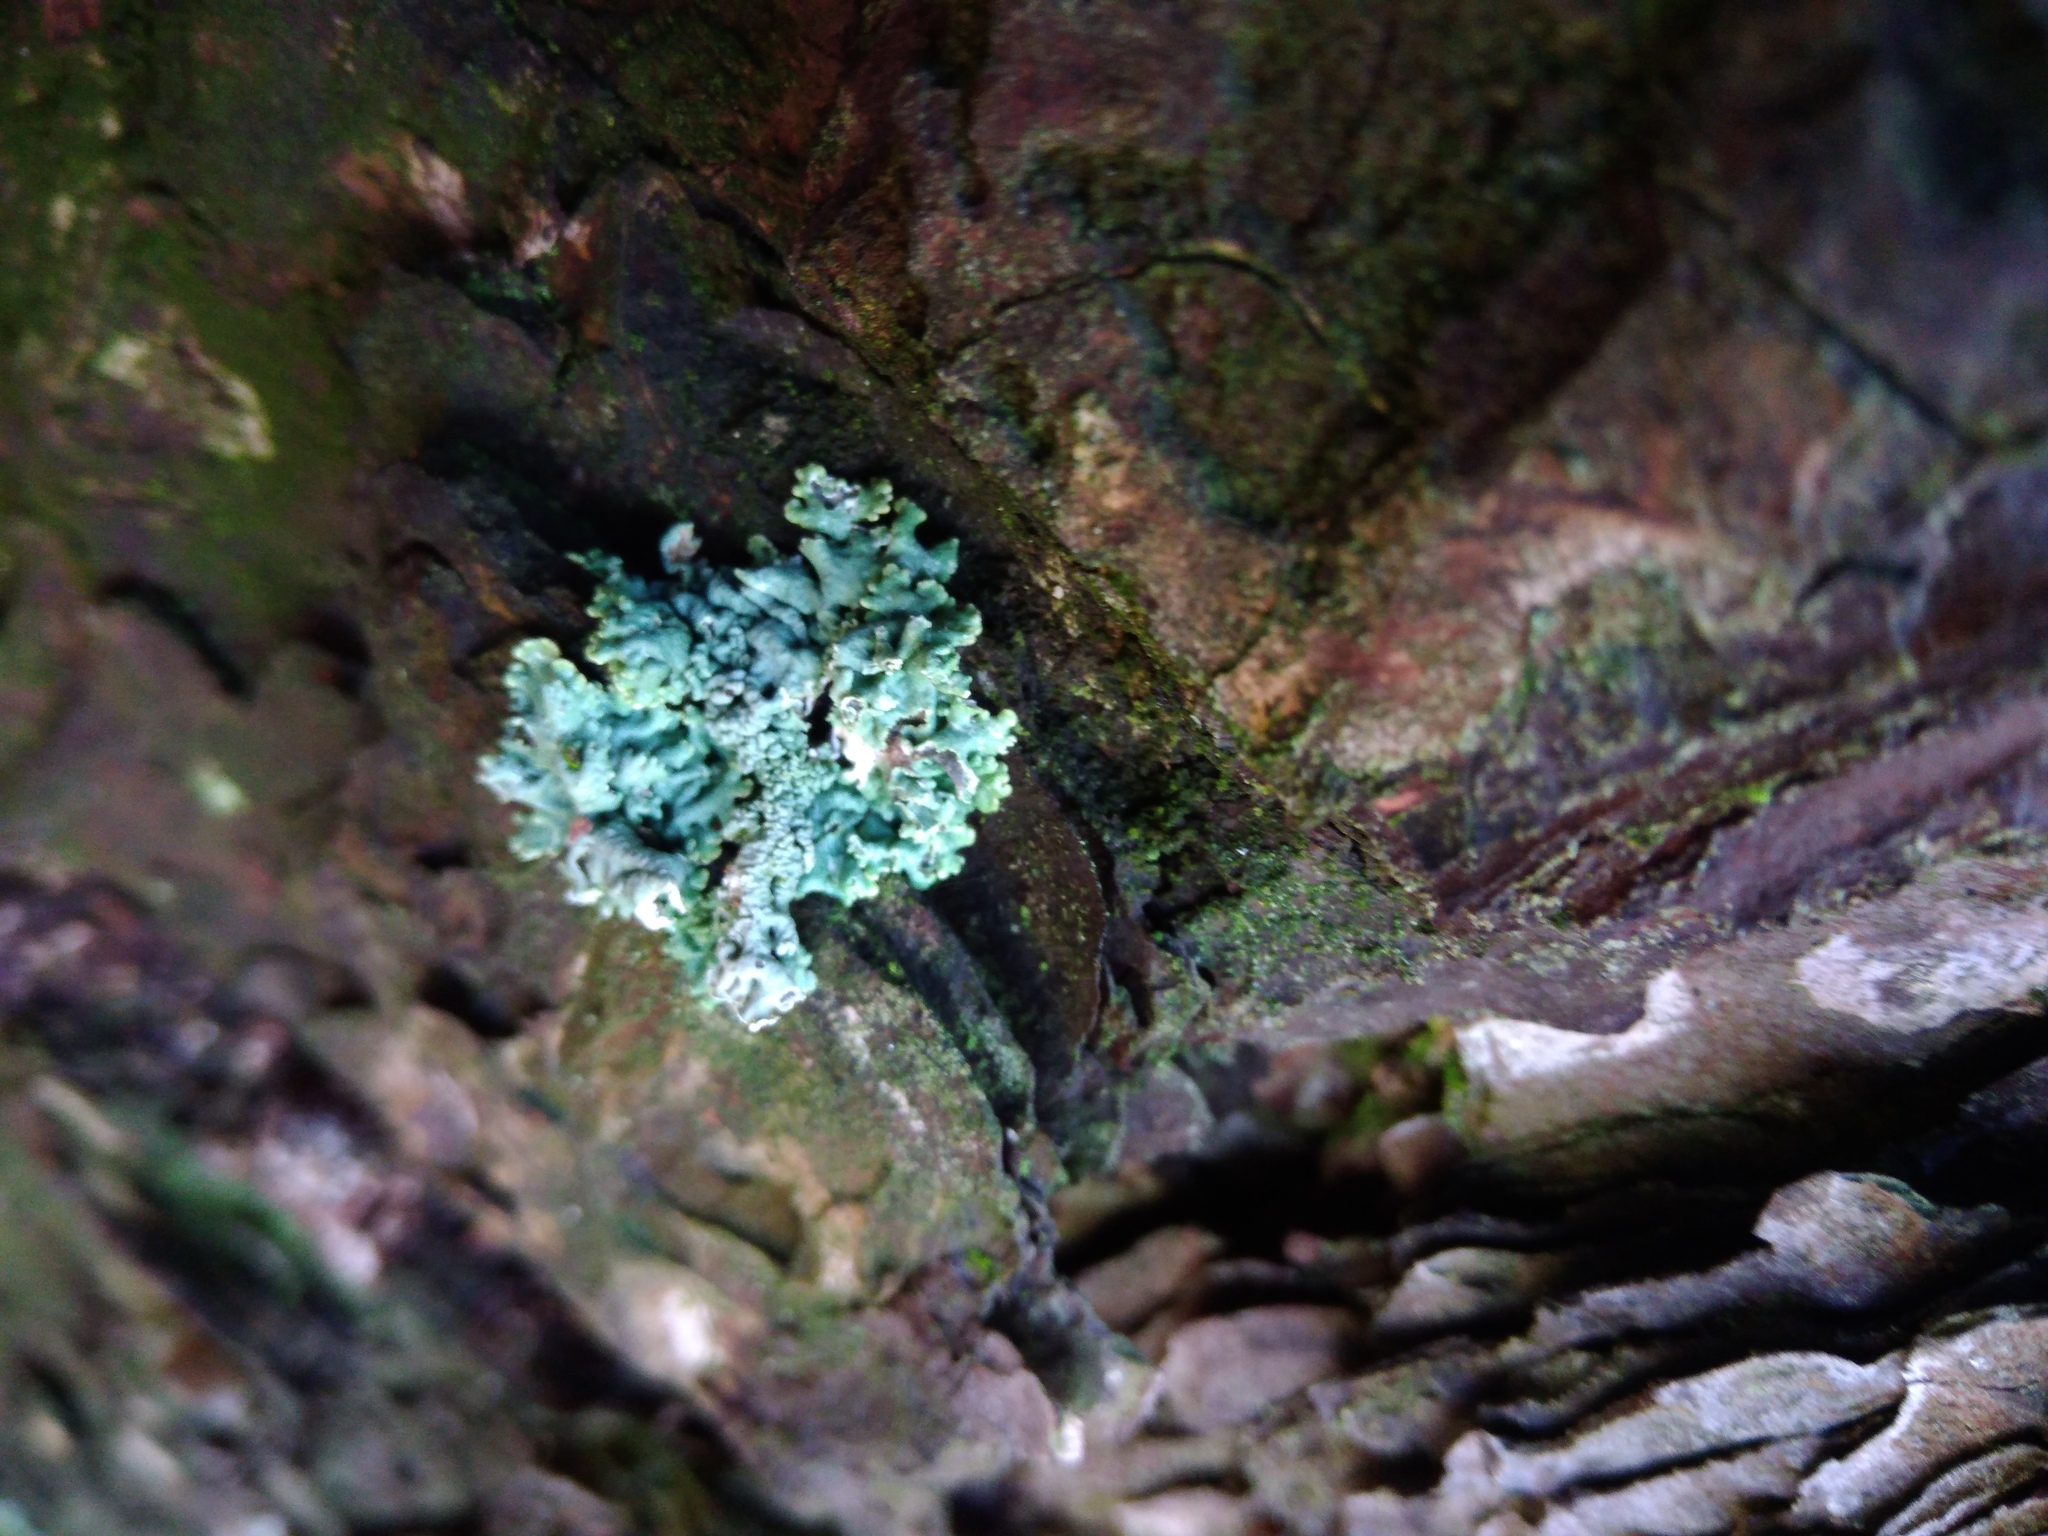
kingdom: Fungi
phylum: Ascomycota
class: Lecanoromycetes
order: Lecanorales
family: Parmeliaceae
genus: Hypogymnia
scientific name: Hypogymnia physodes
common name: Dark crottle
